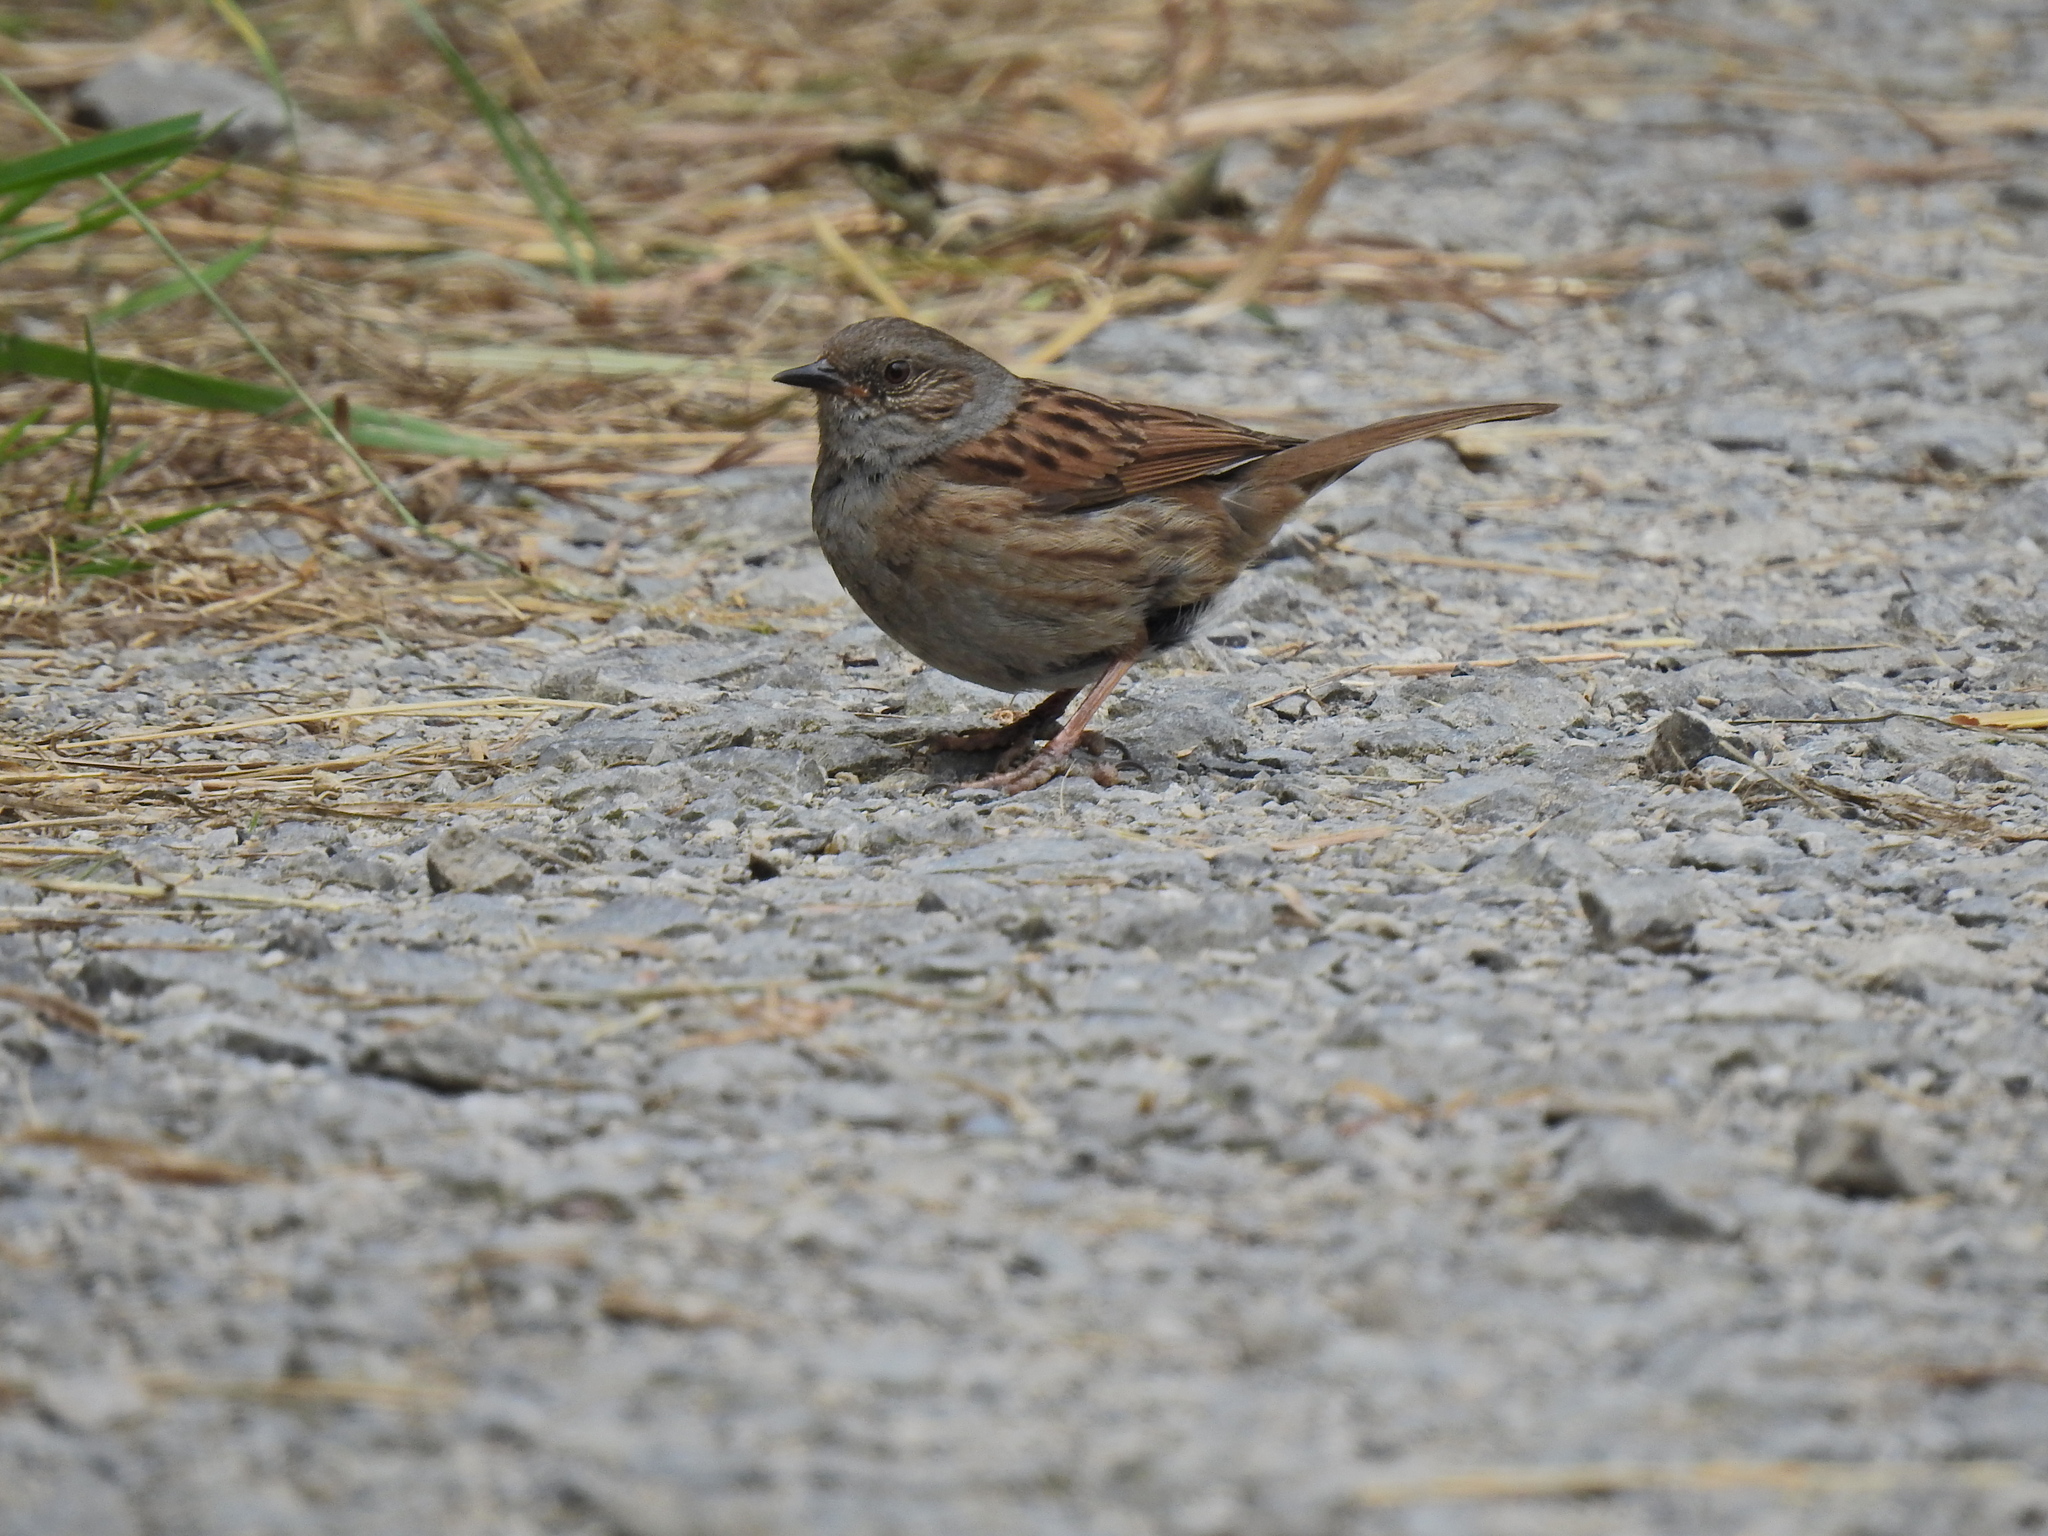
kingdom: Animalia
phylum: Chordata
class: Aves
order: Passeriformes
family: Prunellidae
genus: Prunella
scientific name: Prunella modularis
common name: Dunnock
